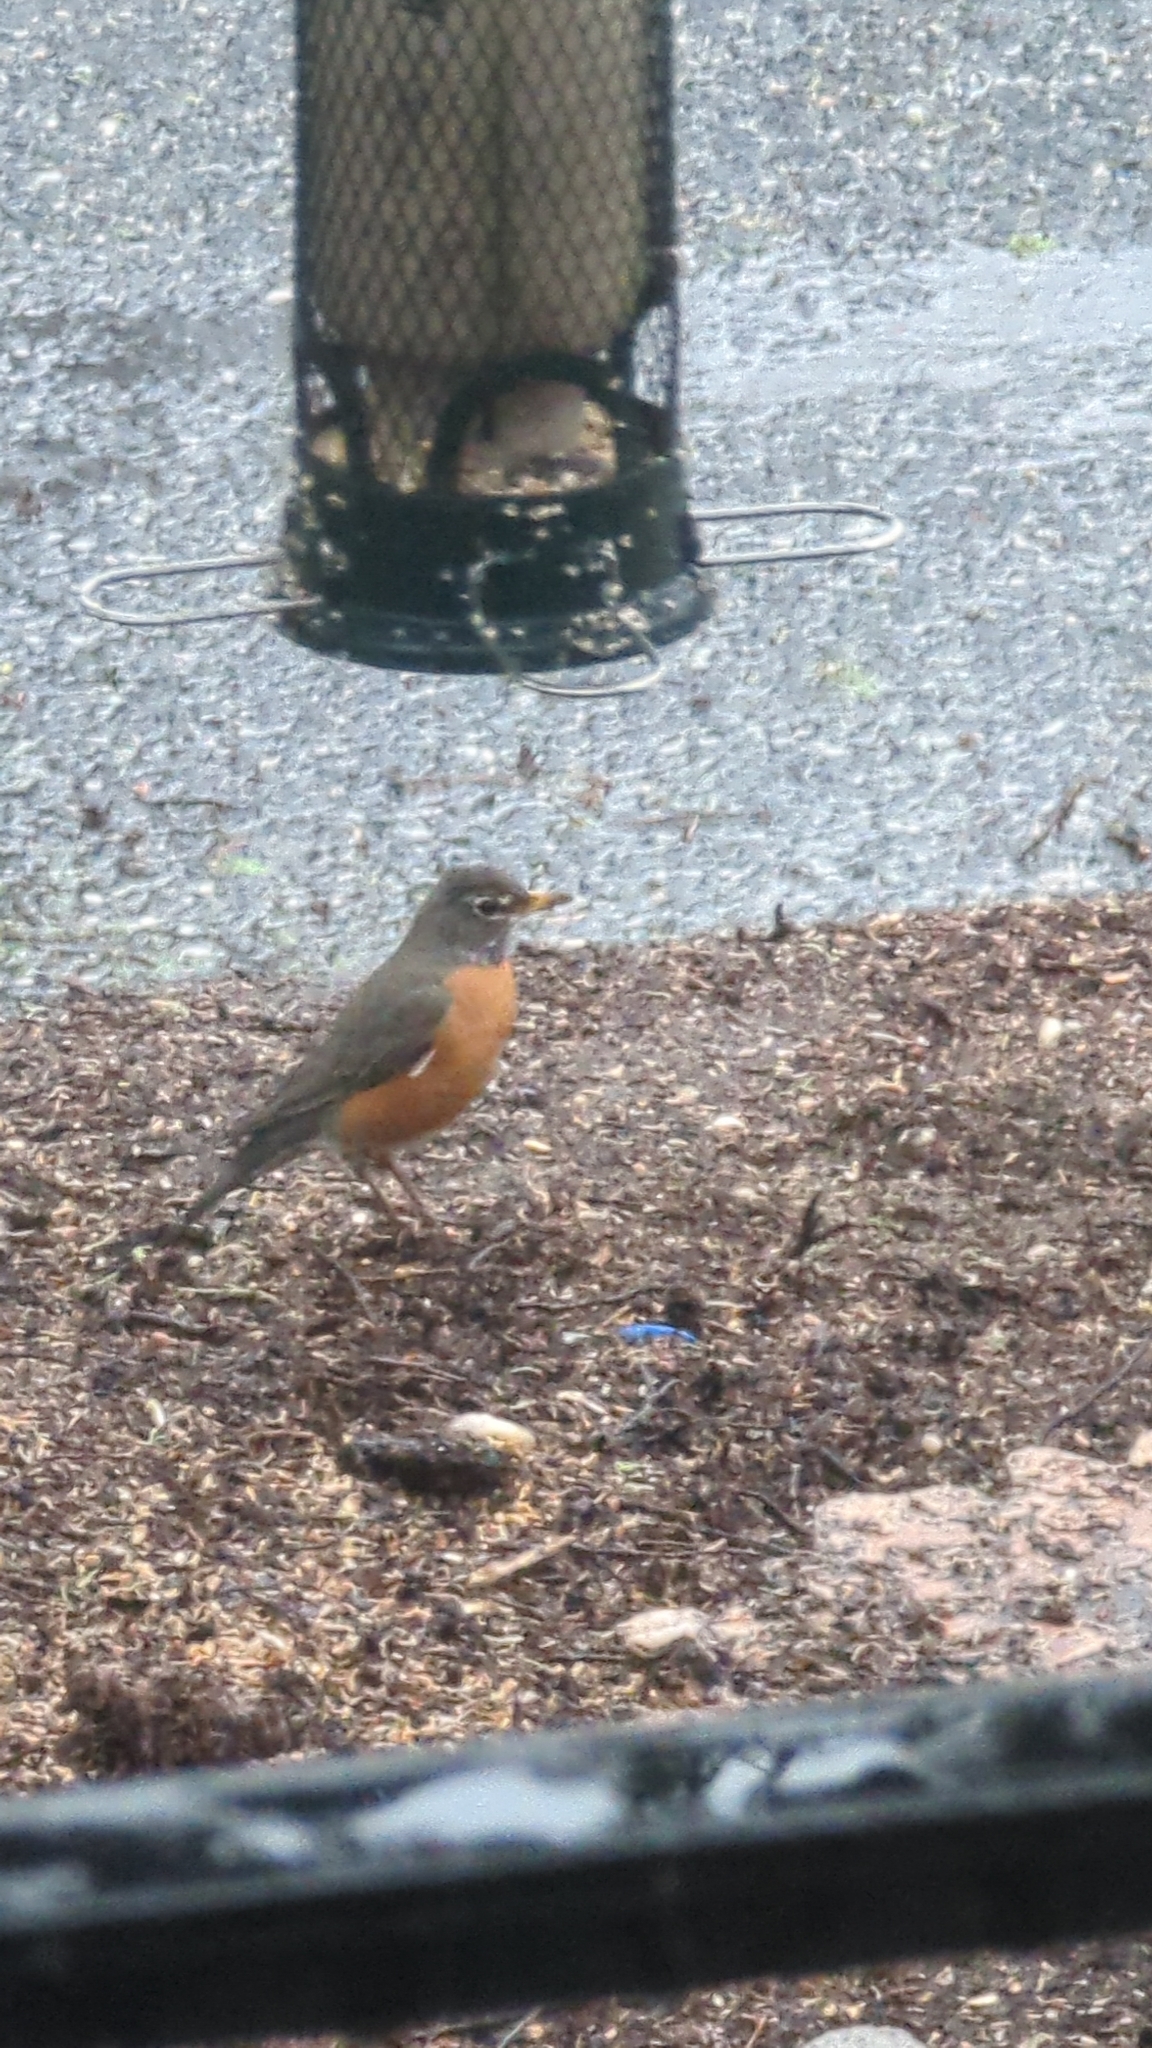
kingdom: Animalia
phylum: Chordata
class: Aves
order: Passeriformes
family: Turdidae
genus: Turdus
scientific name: Turdus migratorius
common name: American robin
